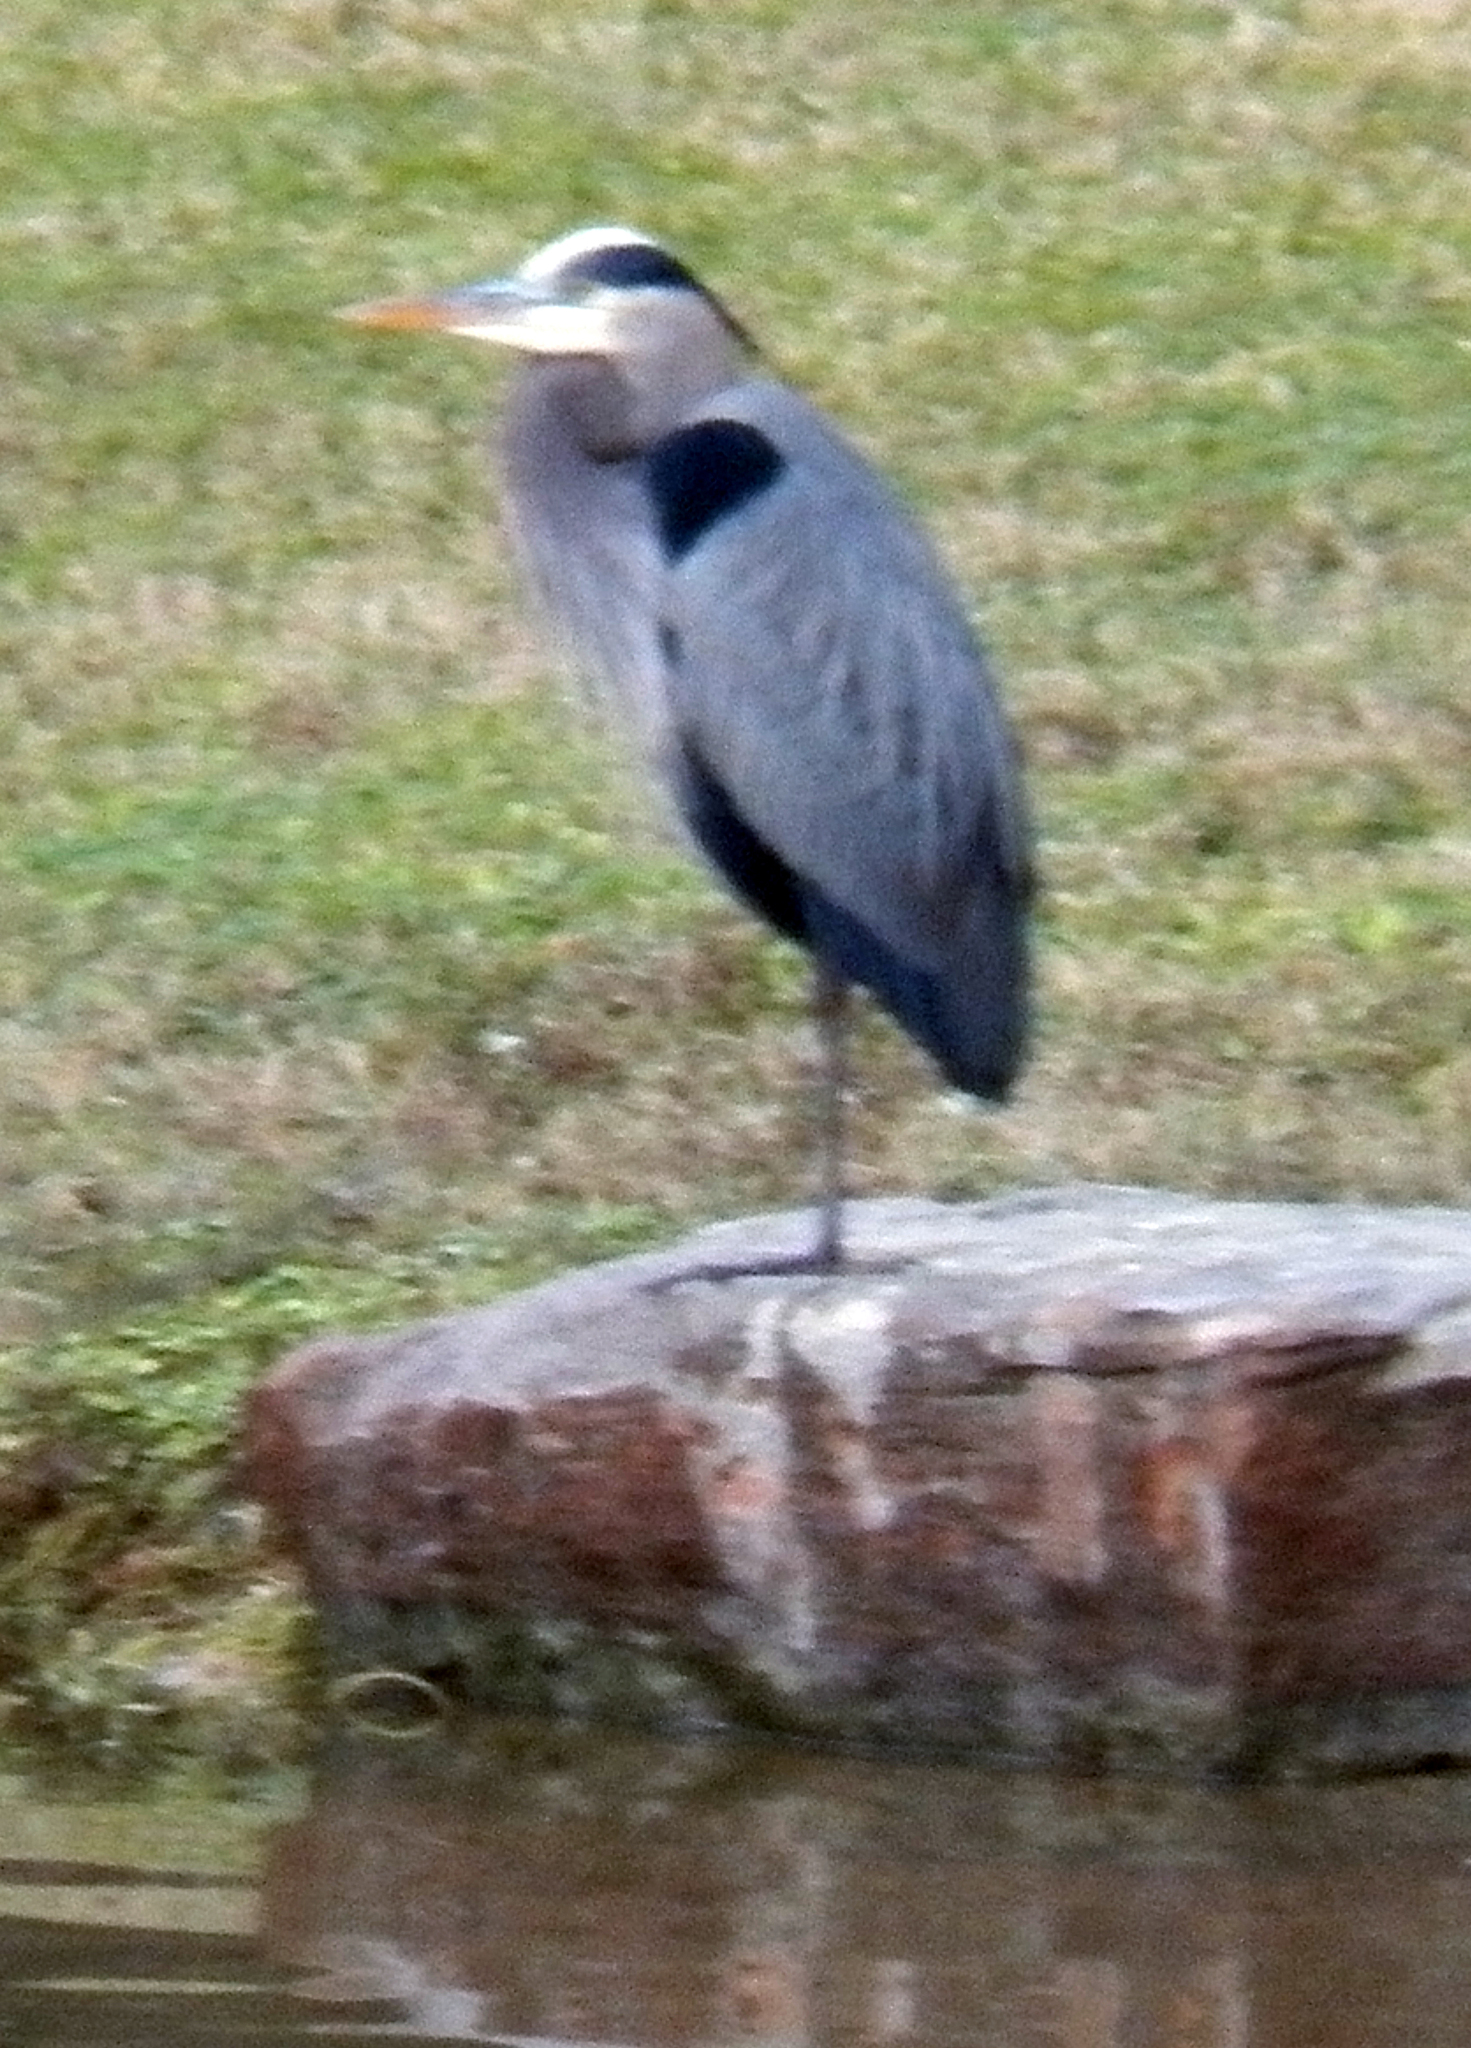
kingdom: Animalia
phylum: Chordata
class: Aves
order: Pelecaniformes
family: Ardeidae
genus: Ardea
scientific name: Ardea herodias
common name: Great blue heron
